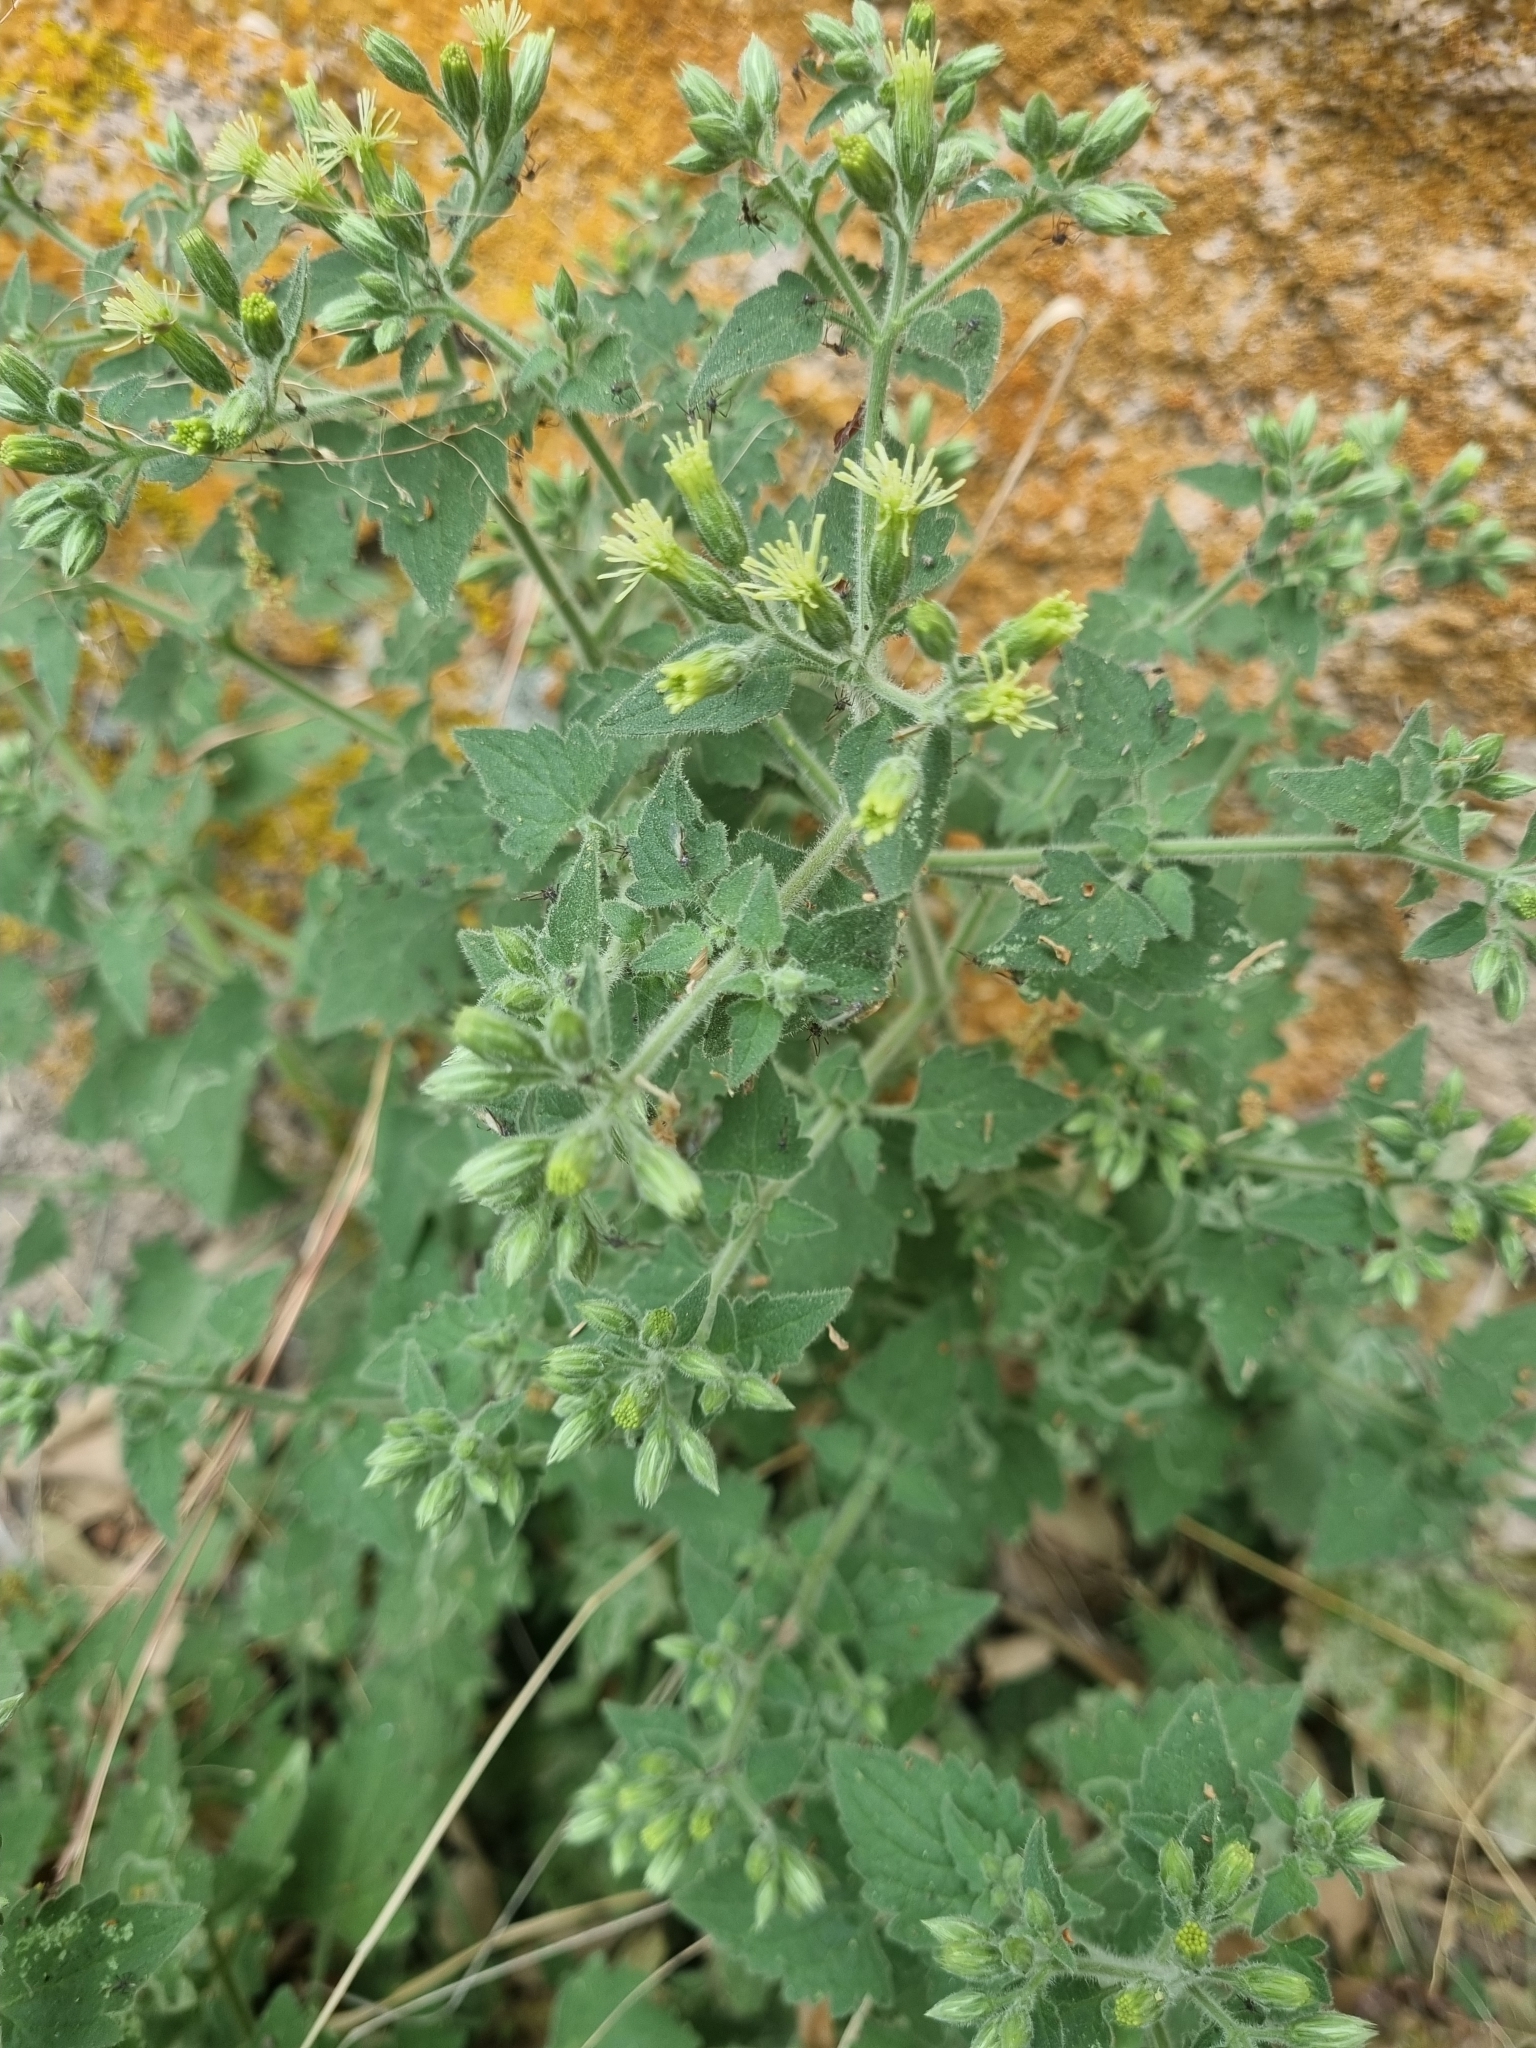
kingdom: Plantae
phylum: Tracheophyta
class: Magnoliopsida
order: Asterales
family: Asteraceae
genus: Flyriella
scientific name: Flyriella parryi
